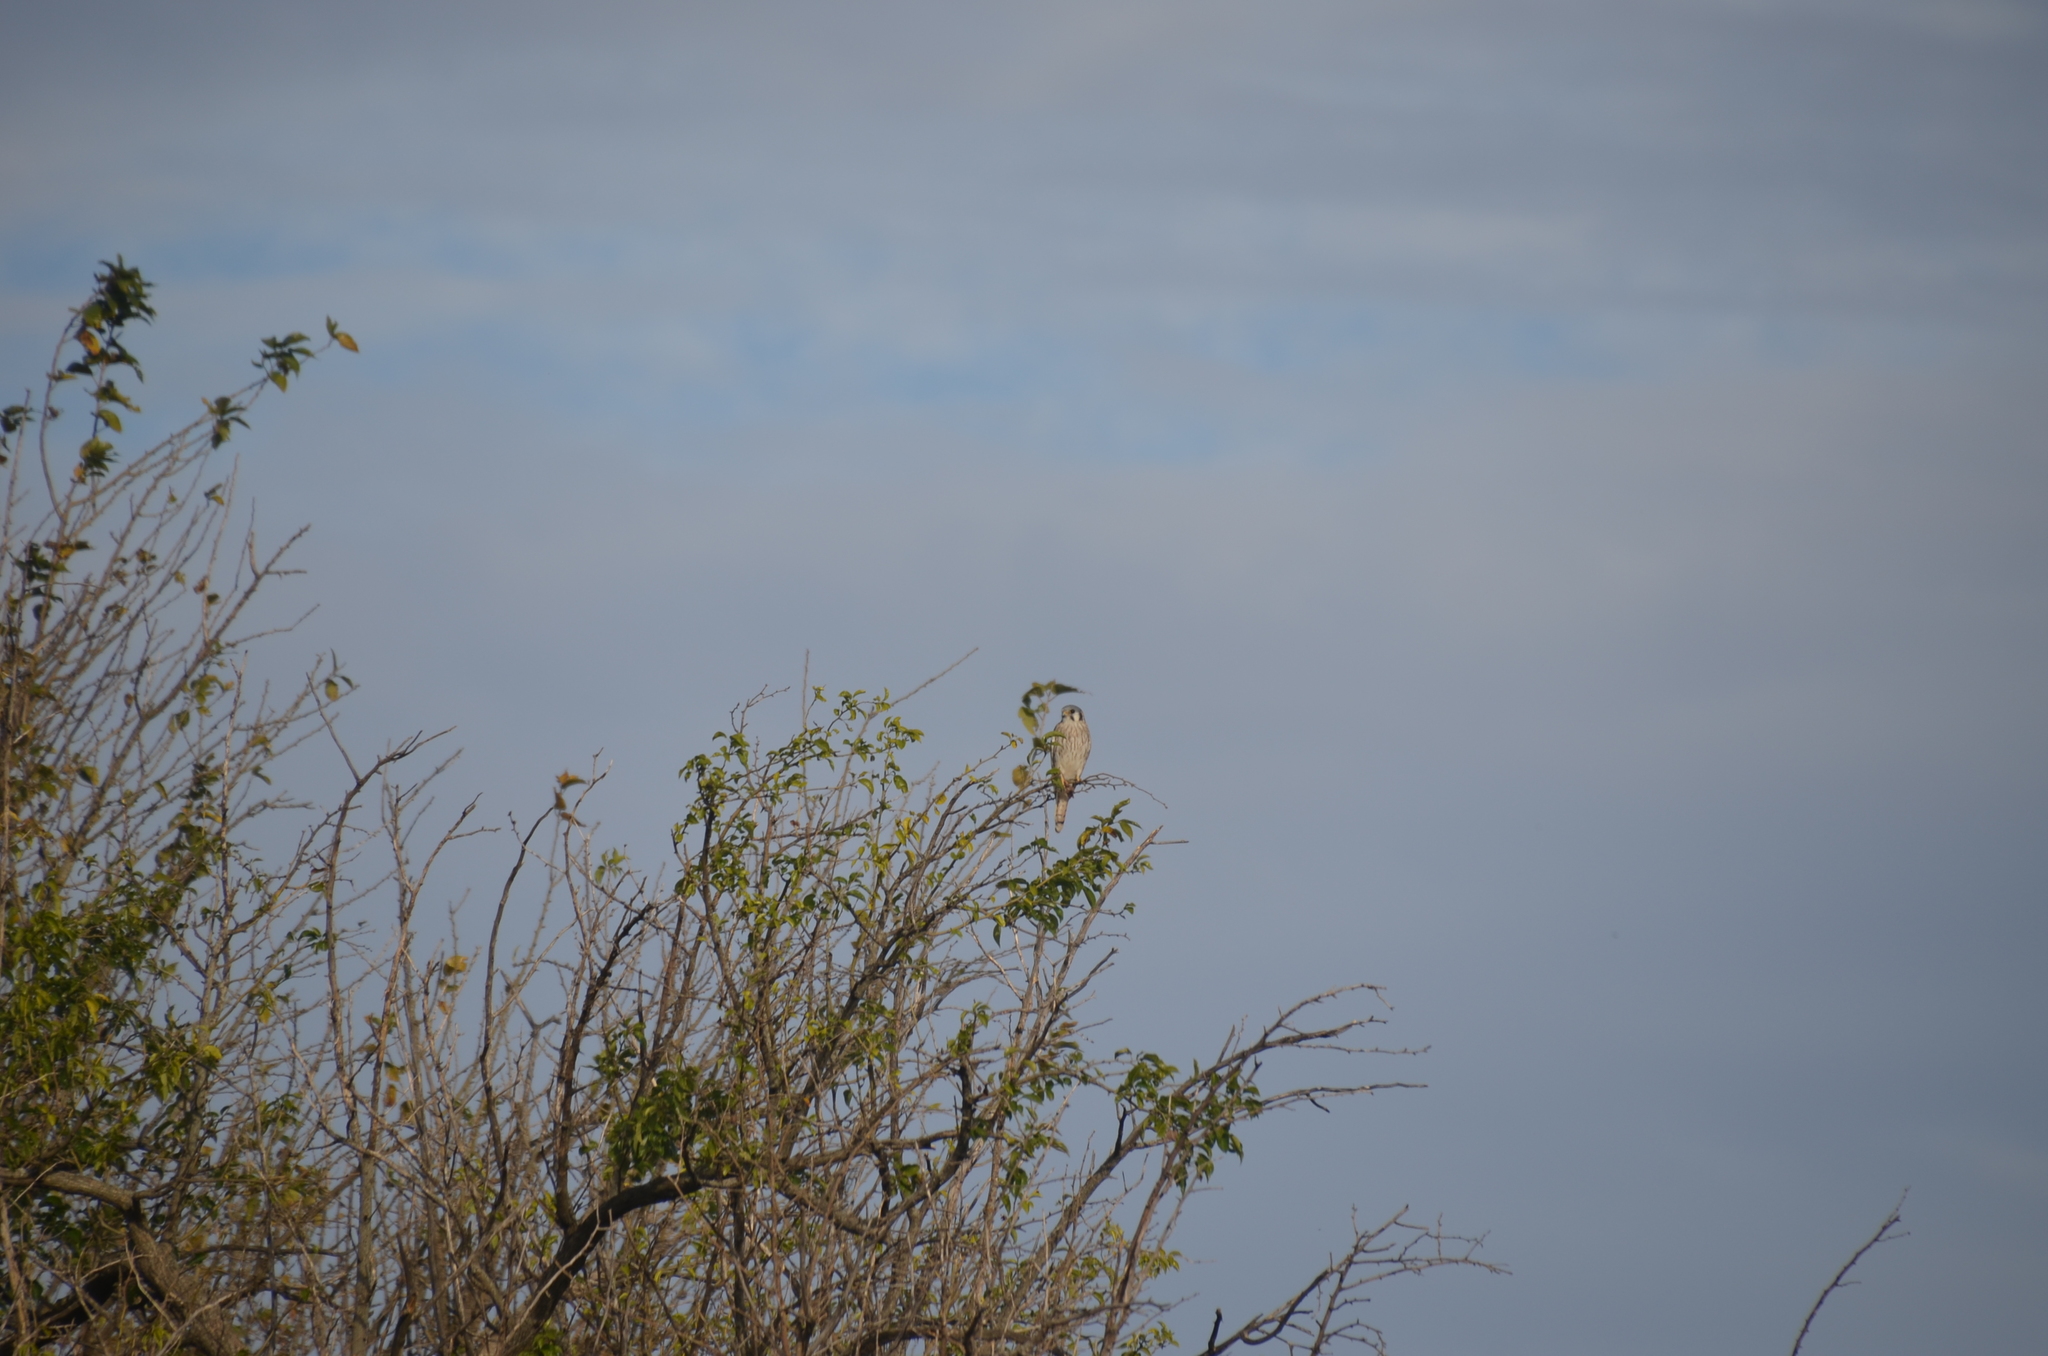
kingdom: Animalia
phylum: Chordata
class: Aves
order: Falconiformes
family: Falconidae
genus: Falco
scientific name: Falco sparverius
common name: American kestrel
